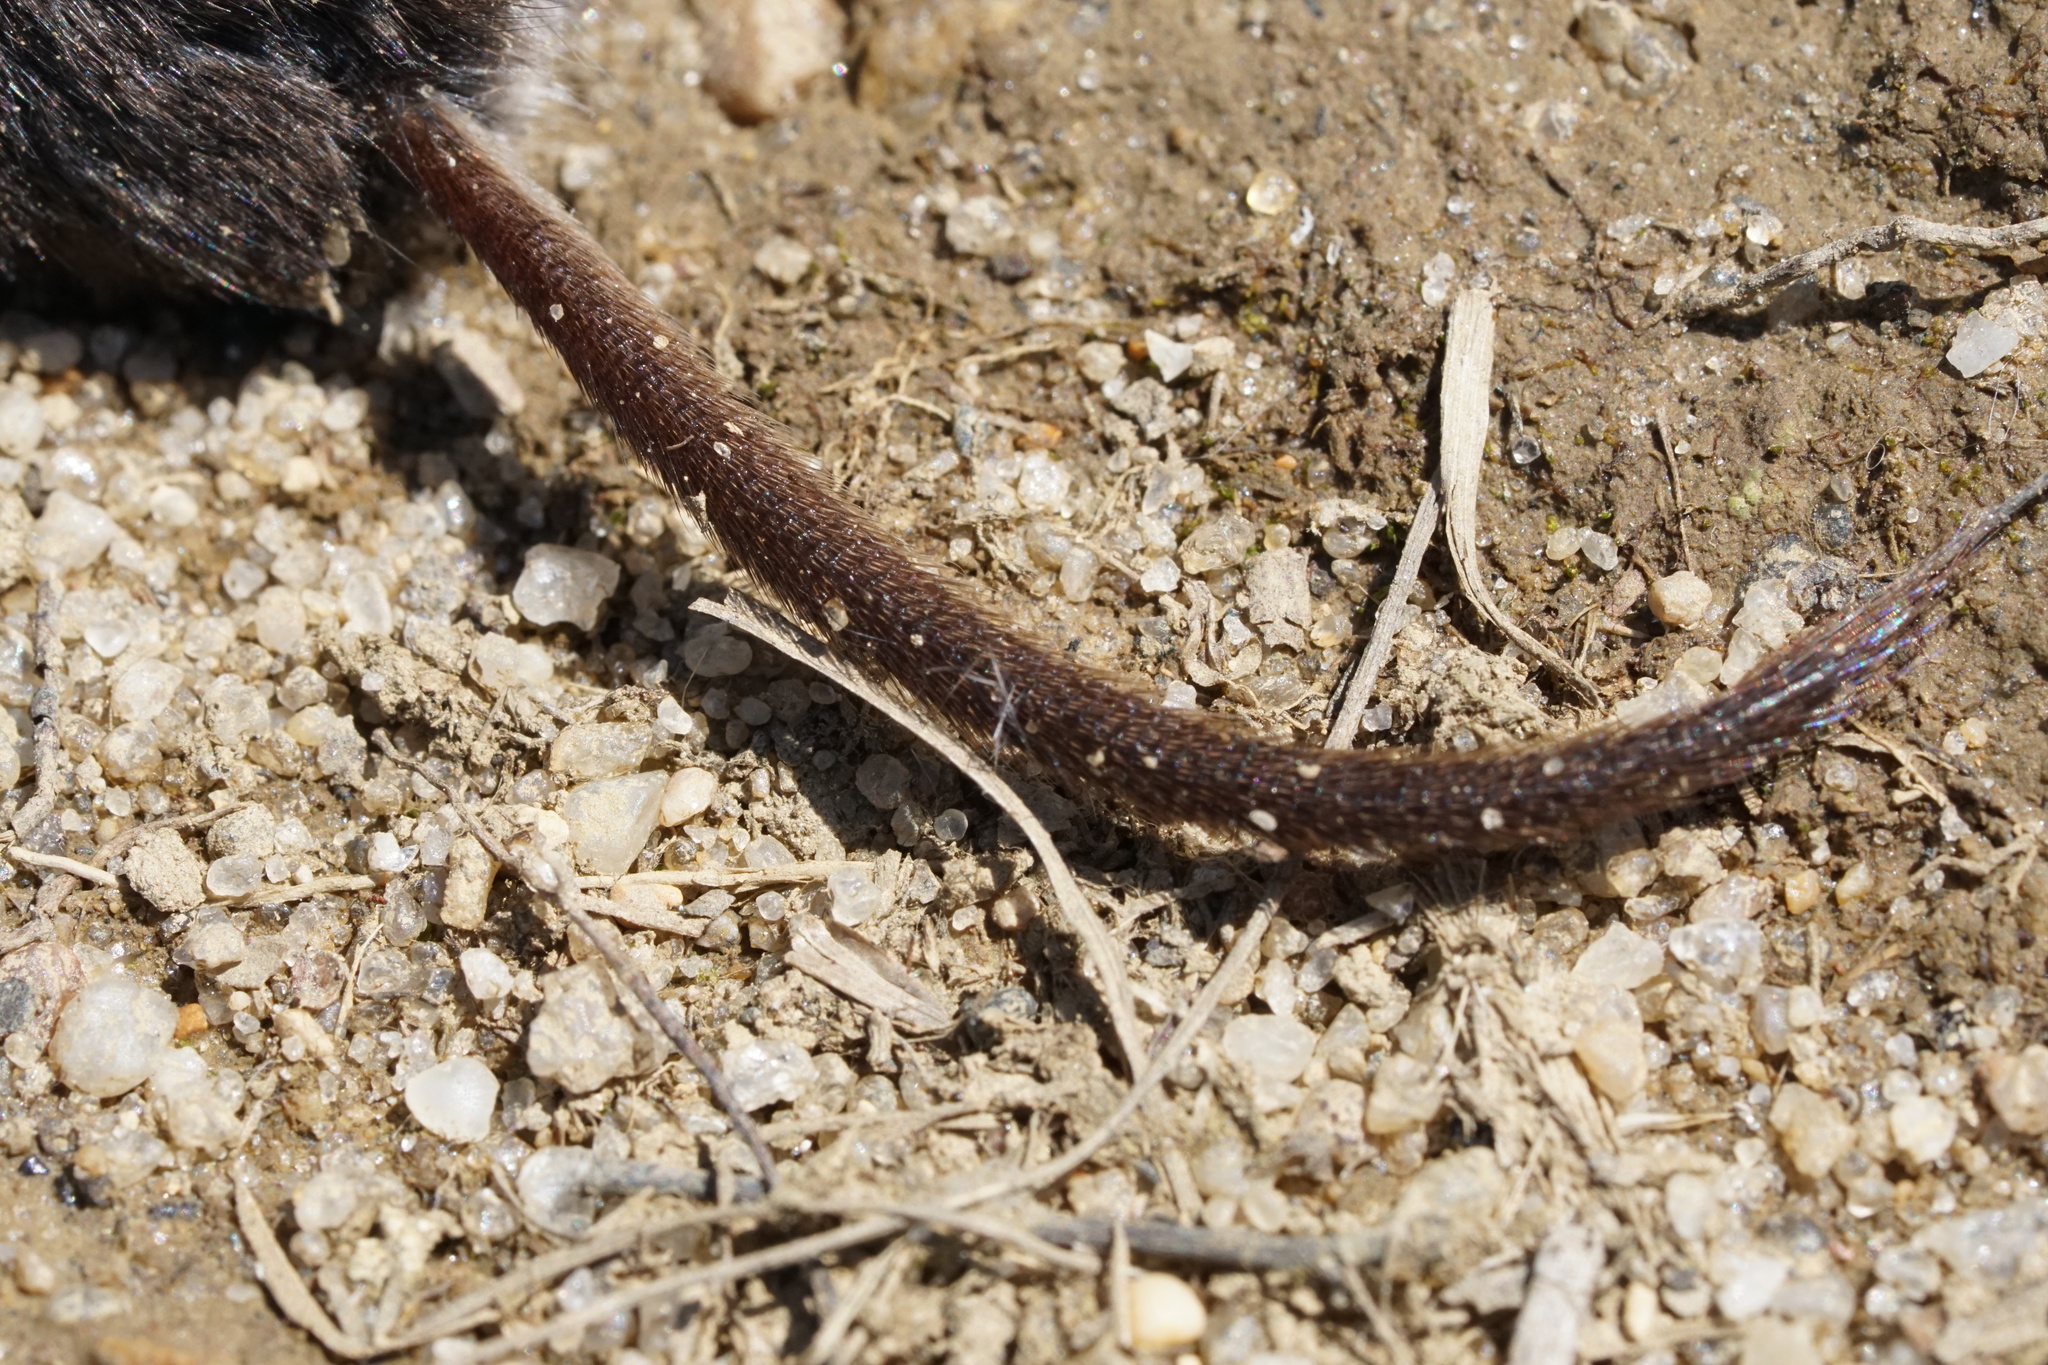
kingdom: Animalia
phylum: Chordata
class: Mammalia
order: Soricomorpha
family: Soricidae
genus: Sorex
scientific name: Sorex cinereus
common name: Cinereus shrew
